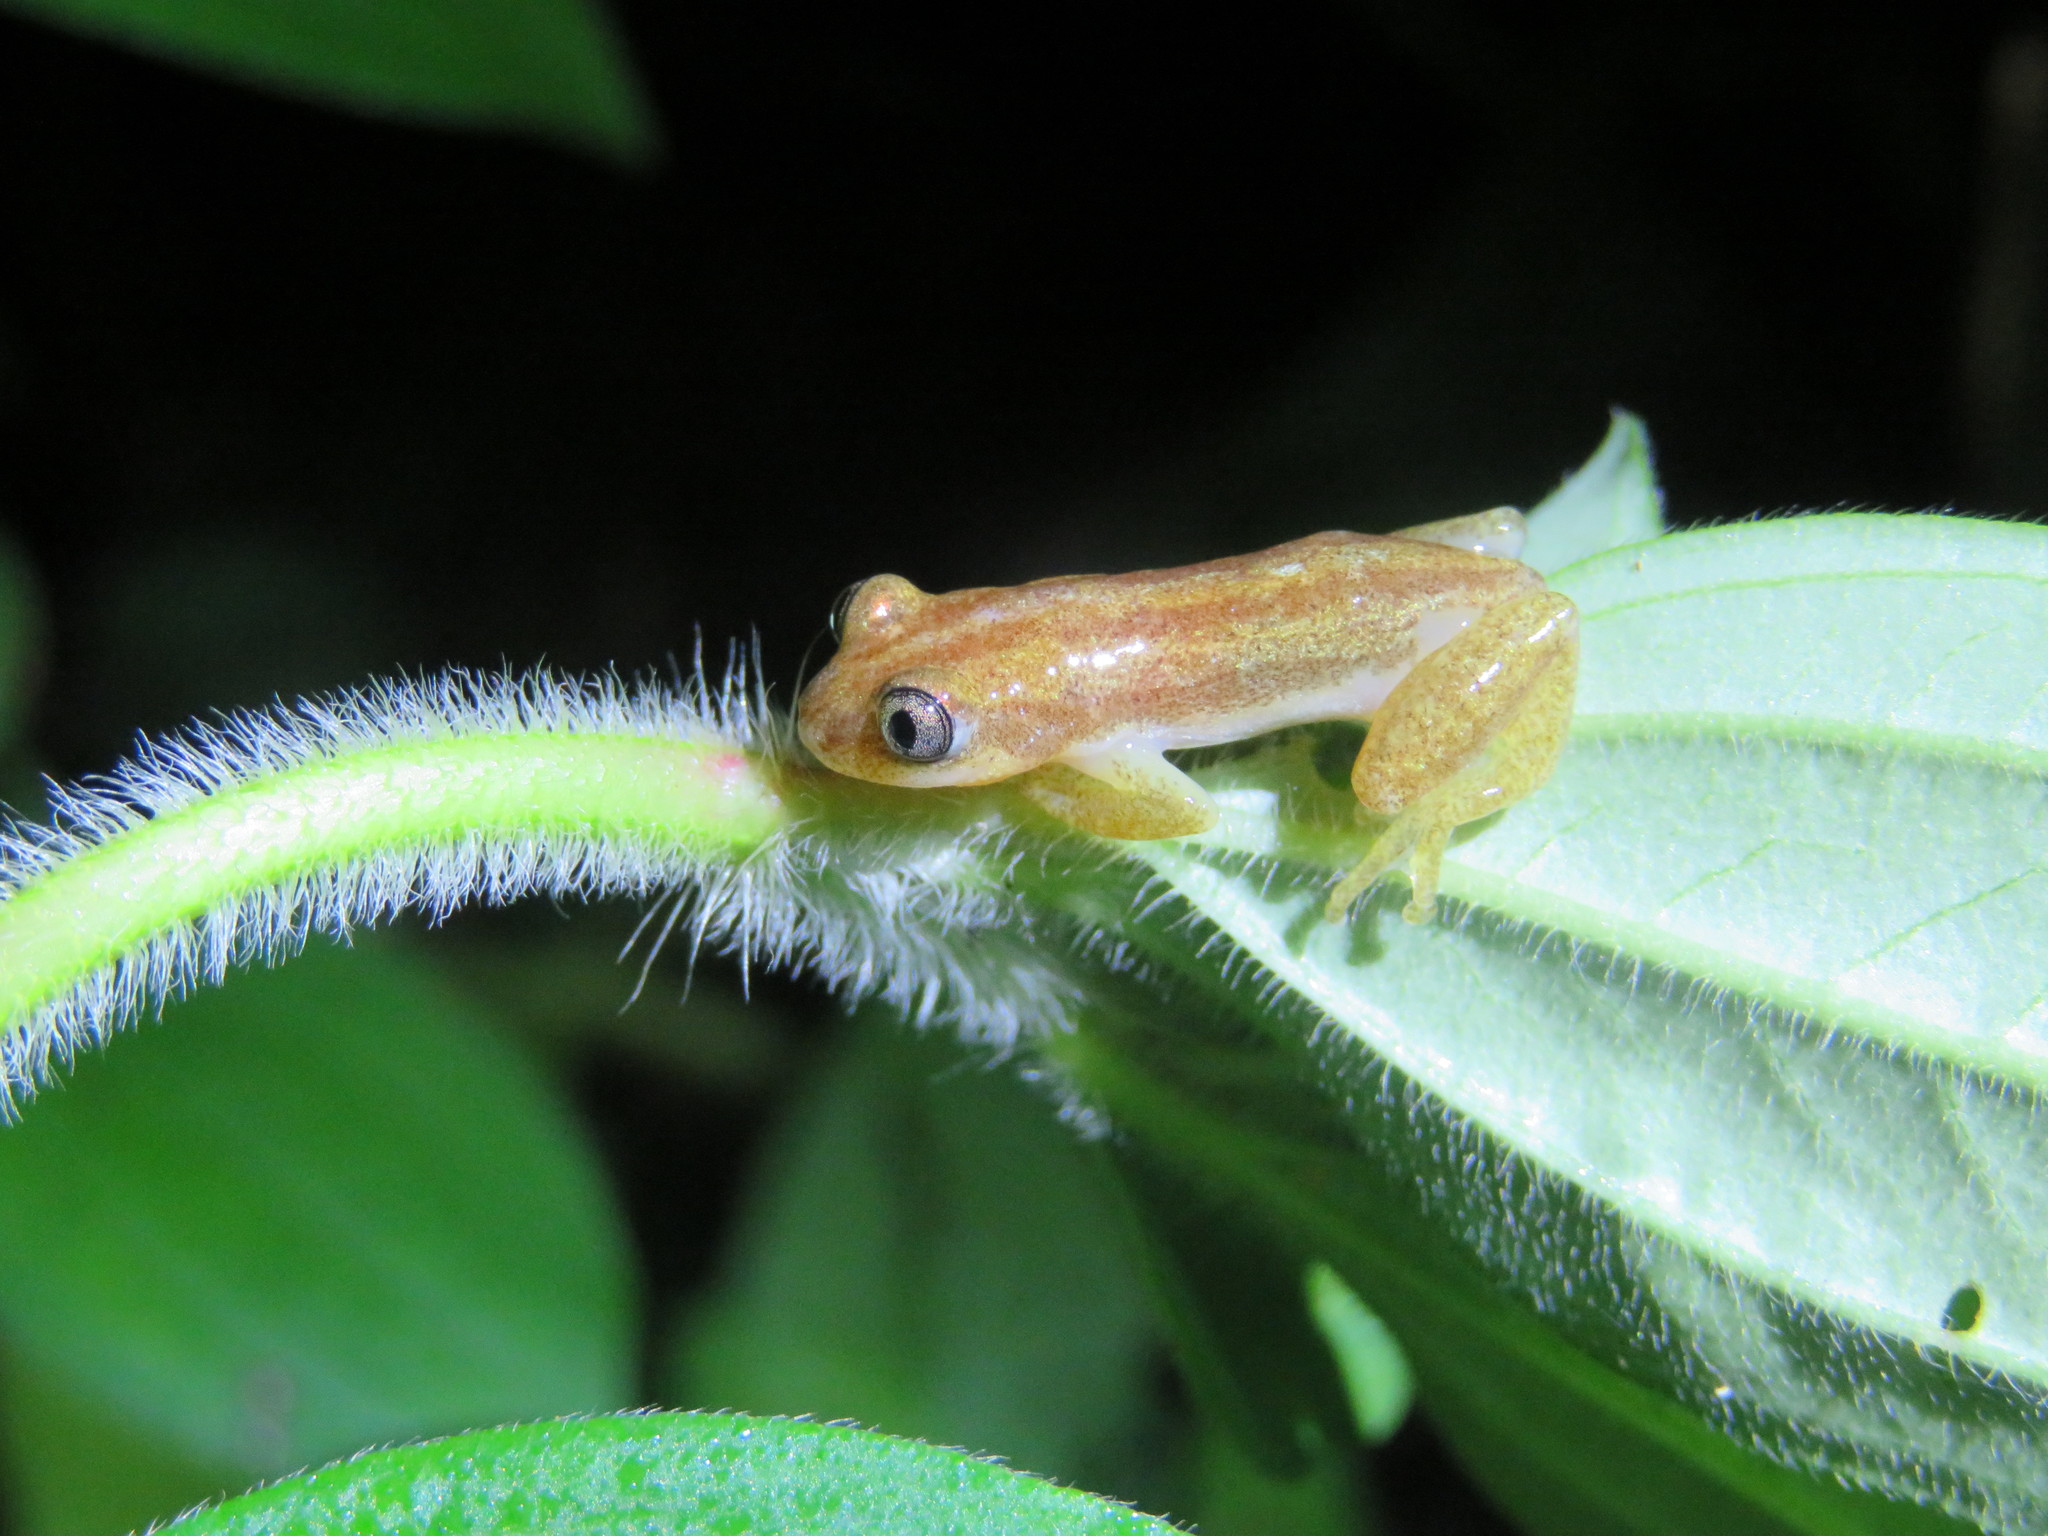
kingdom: Animalia
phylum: Chordata
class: Amphibia
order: Anura
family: Hyperoliidae
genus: Afrixalus
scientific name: Afrixalus stuhlmanni
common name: Lesser banana frog
